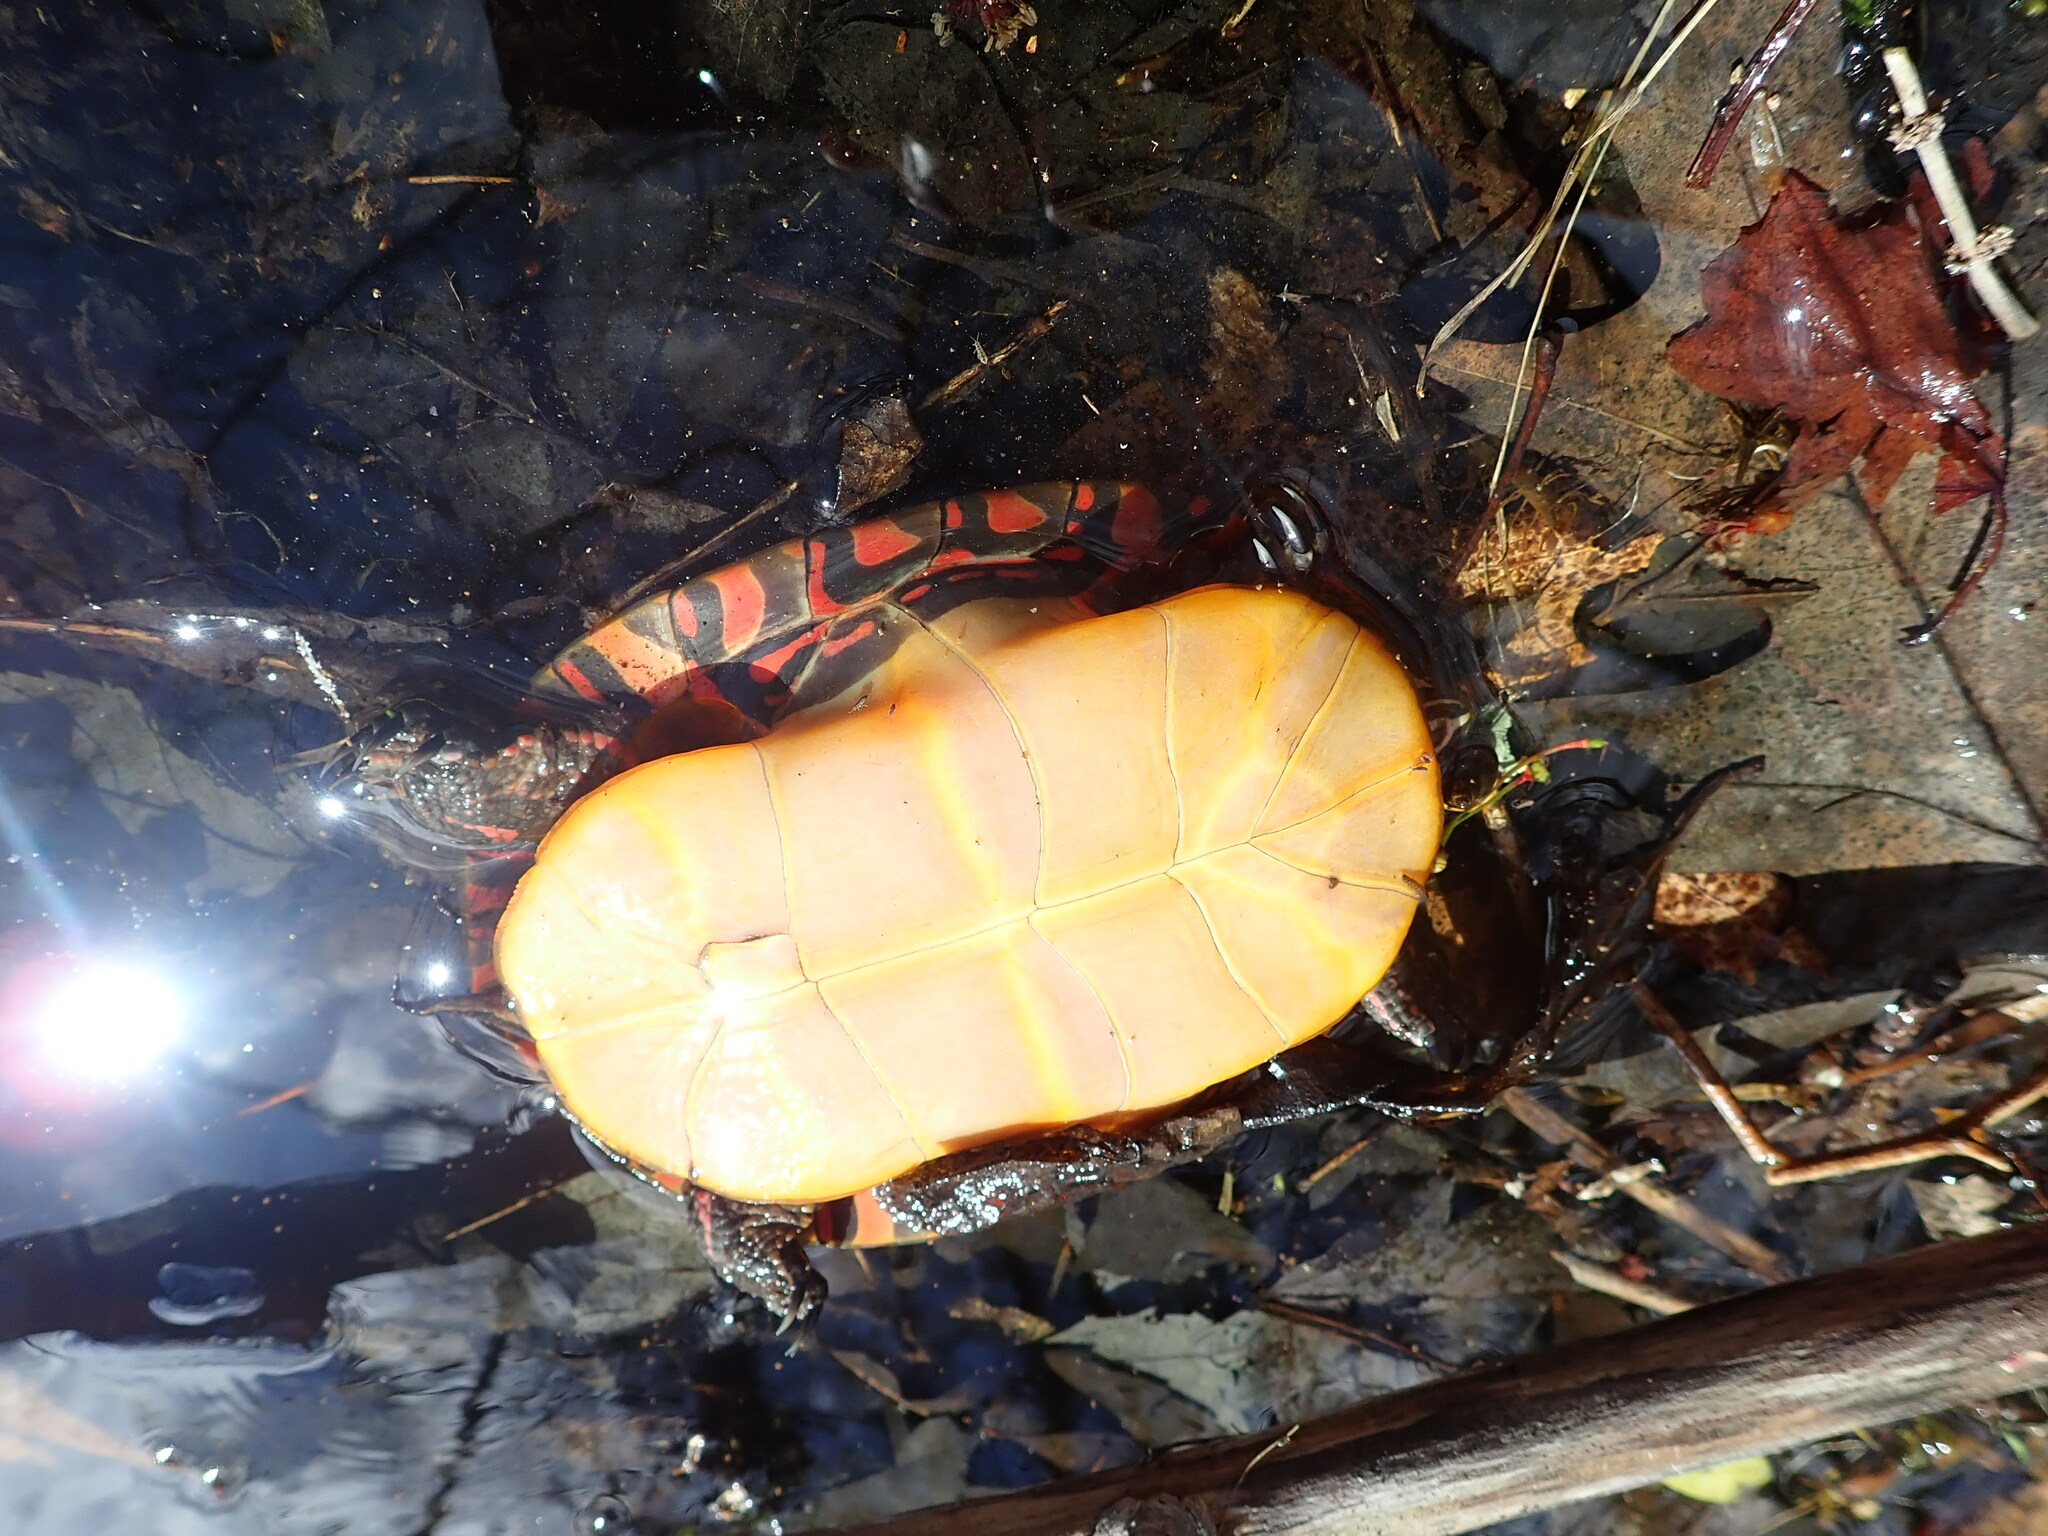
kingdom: Animalia
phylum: Chordata
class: Testudines
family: Emydidae
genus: Chrysemys
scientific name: Chrysemys picta
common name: Painted turtle
